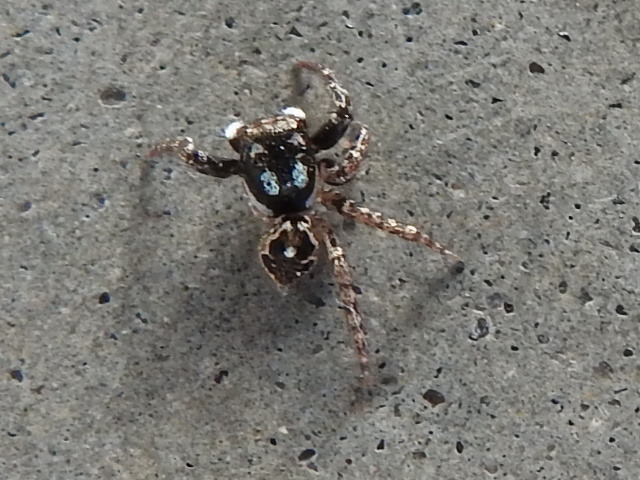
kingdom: Animalia
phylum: Arthropoda
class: Arachnida
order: Araneae
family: Salticidae
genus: Anasaitis
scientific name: Anasaitis canosa
